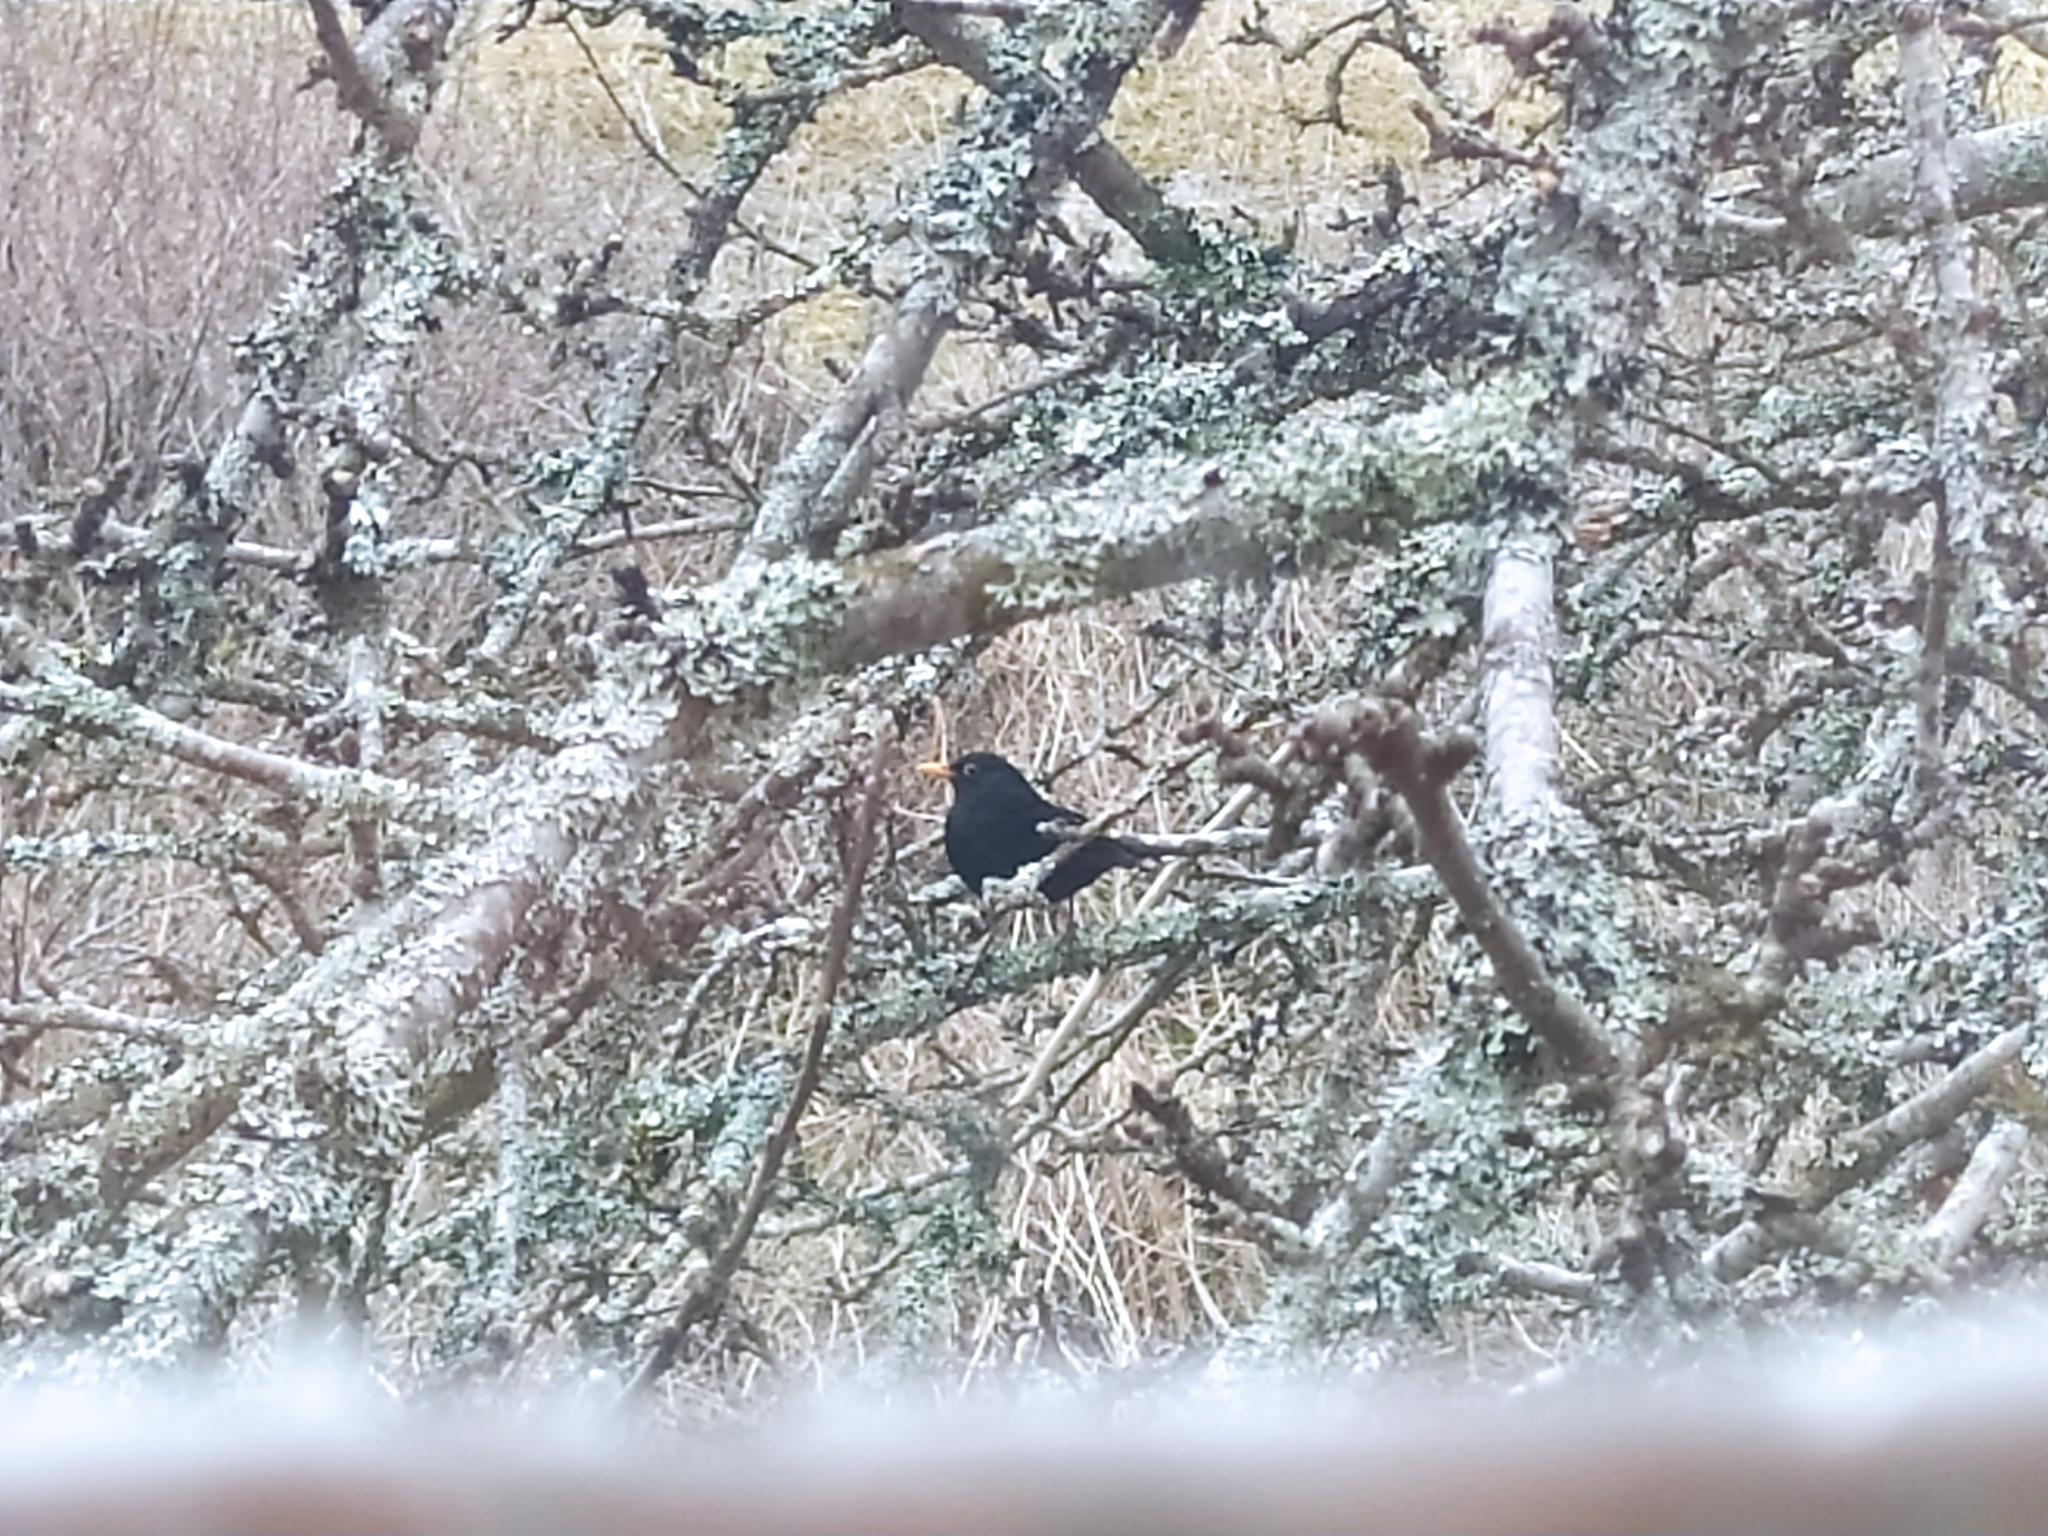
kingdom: Animalia
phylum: Chordata
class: Aves
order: Passeriformes
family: Turdidae
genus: Turdus
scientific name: Turdus merula
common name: Common blackbird
